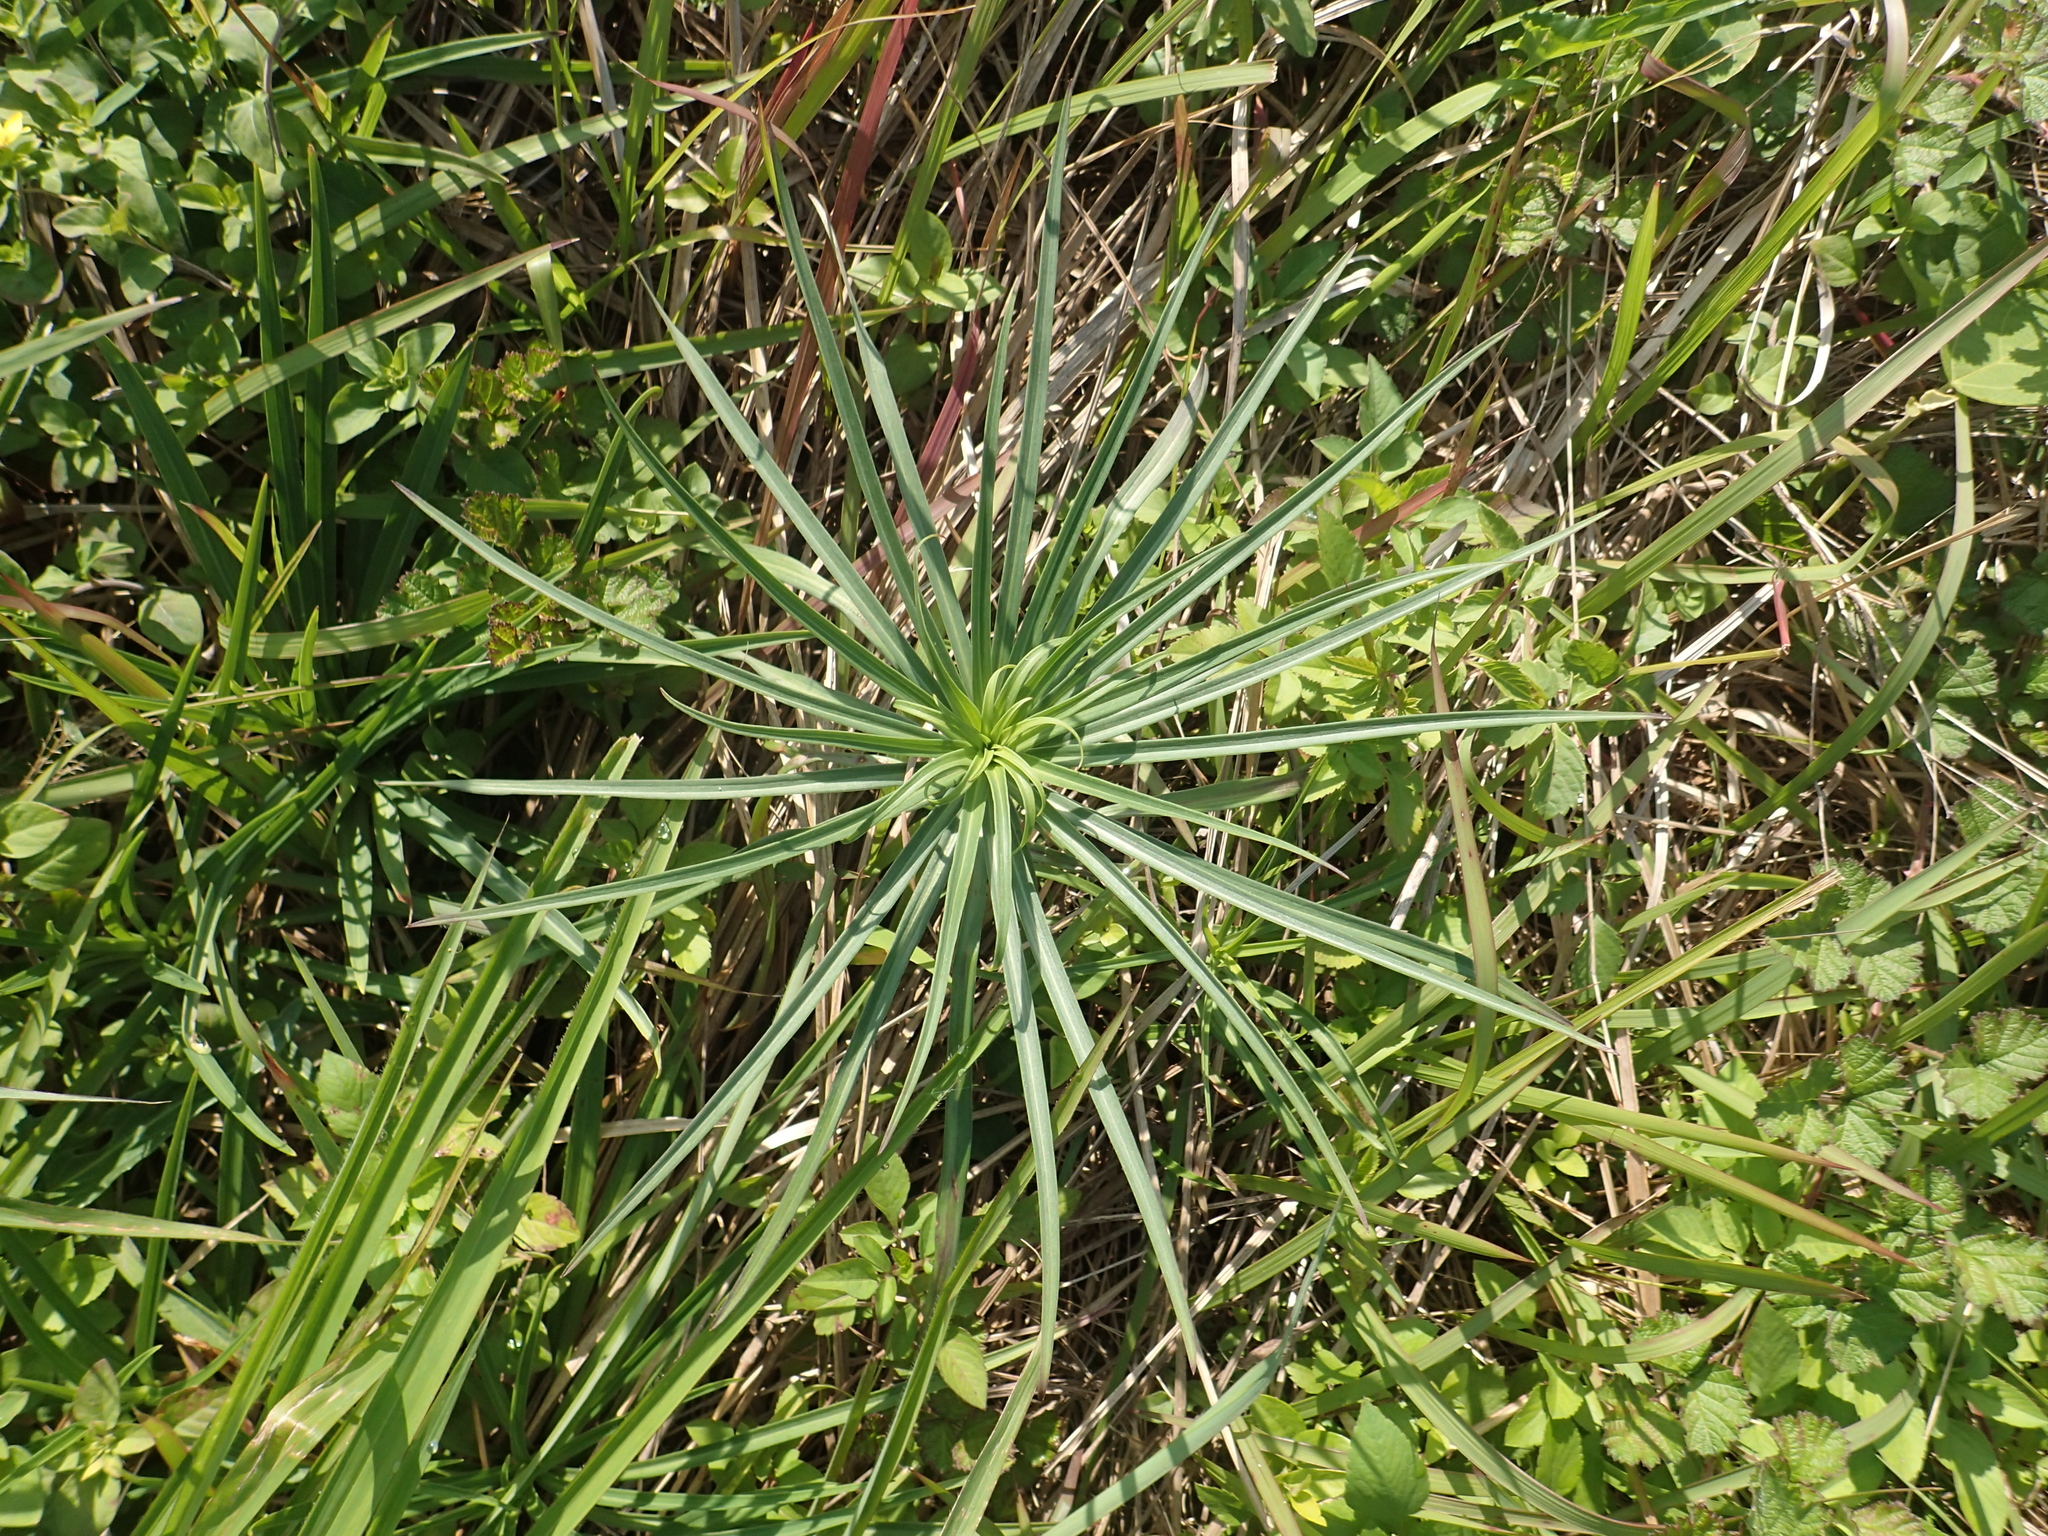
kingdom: Plantae
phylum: Tracheophyta
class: Liliopsida
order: Liliales
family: Liliaceae
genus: Lilium
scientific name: Lilium formosanum
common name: Formosa lily
